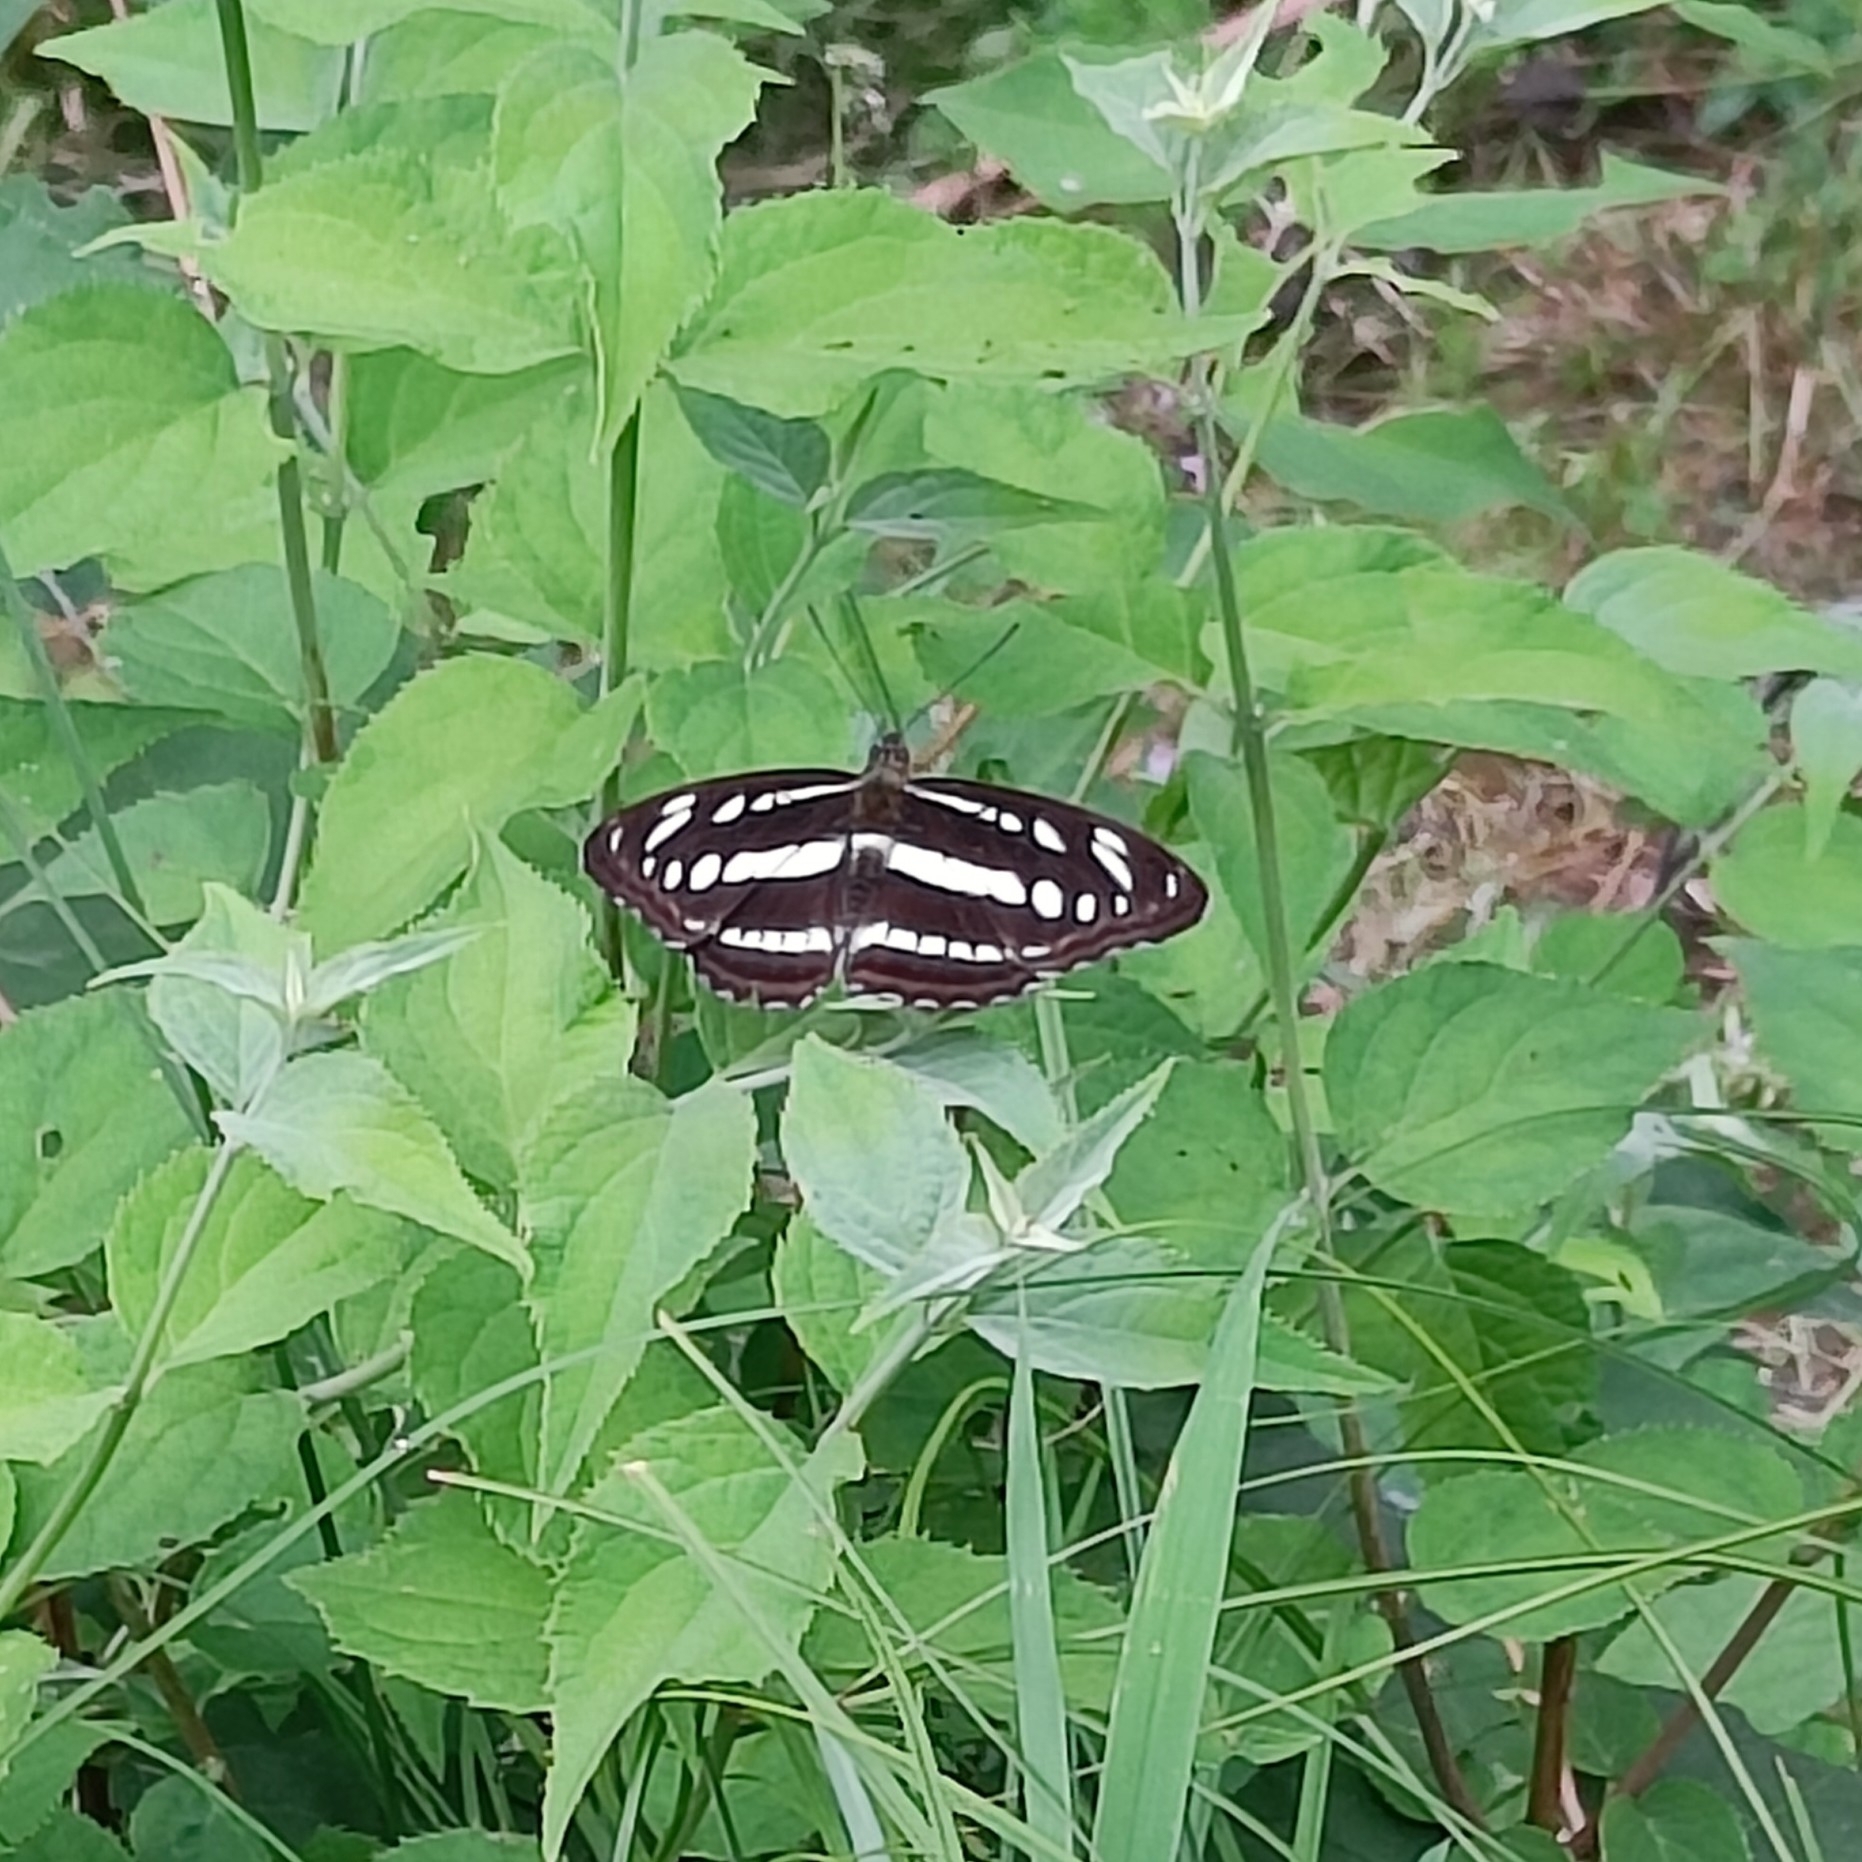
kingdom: Animalia
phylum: Arthropoda
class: Insecta
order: Lepidoptera
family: Nymphalidae
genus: Parathyma
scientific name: Parathyma opalina
